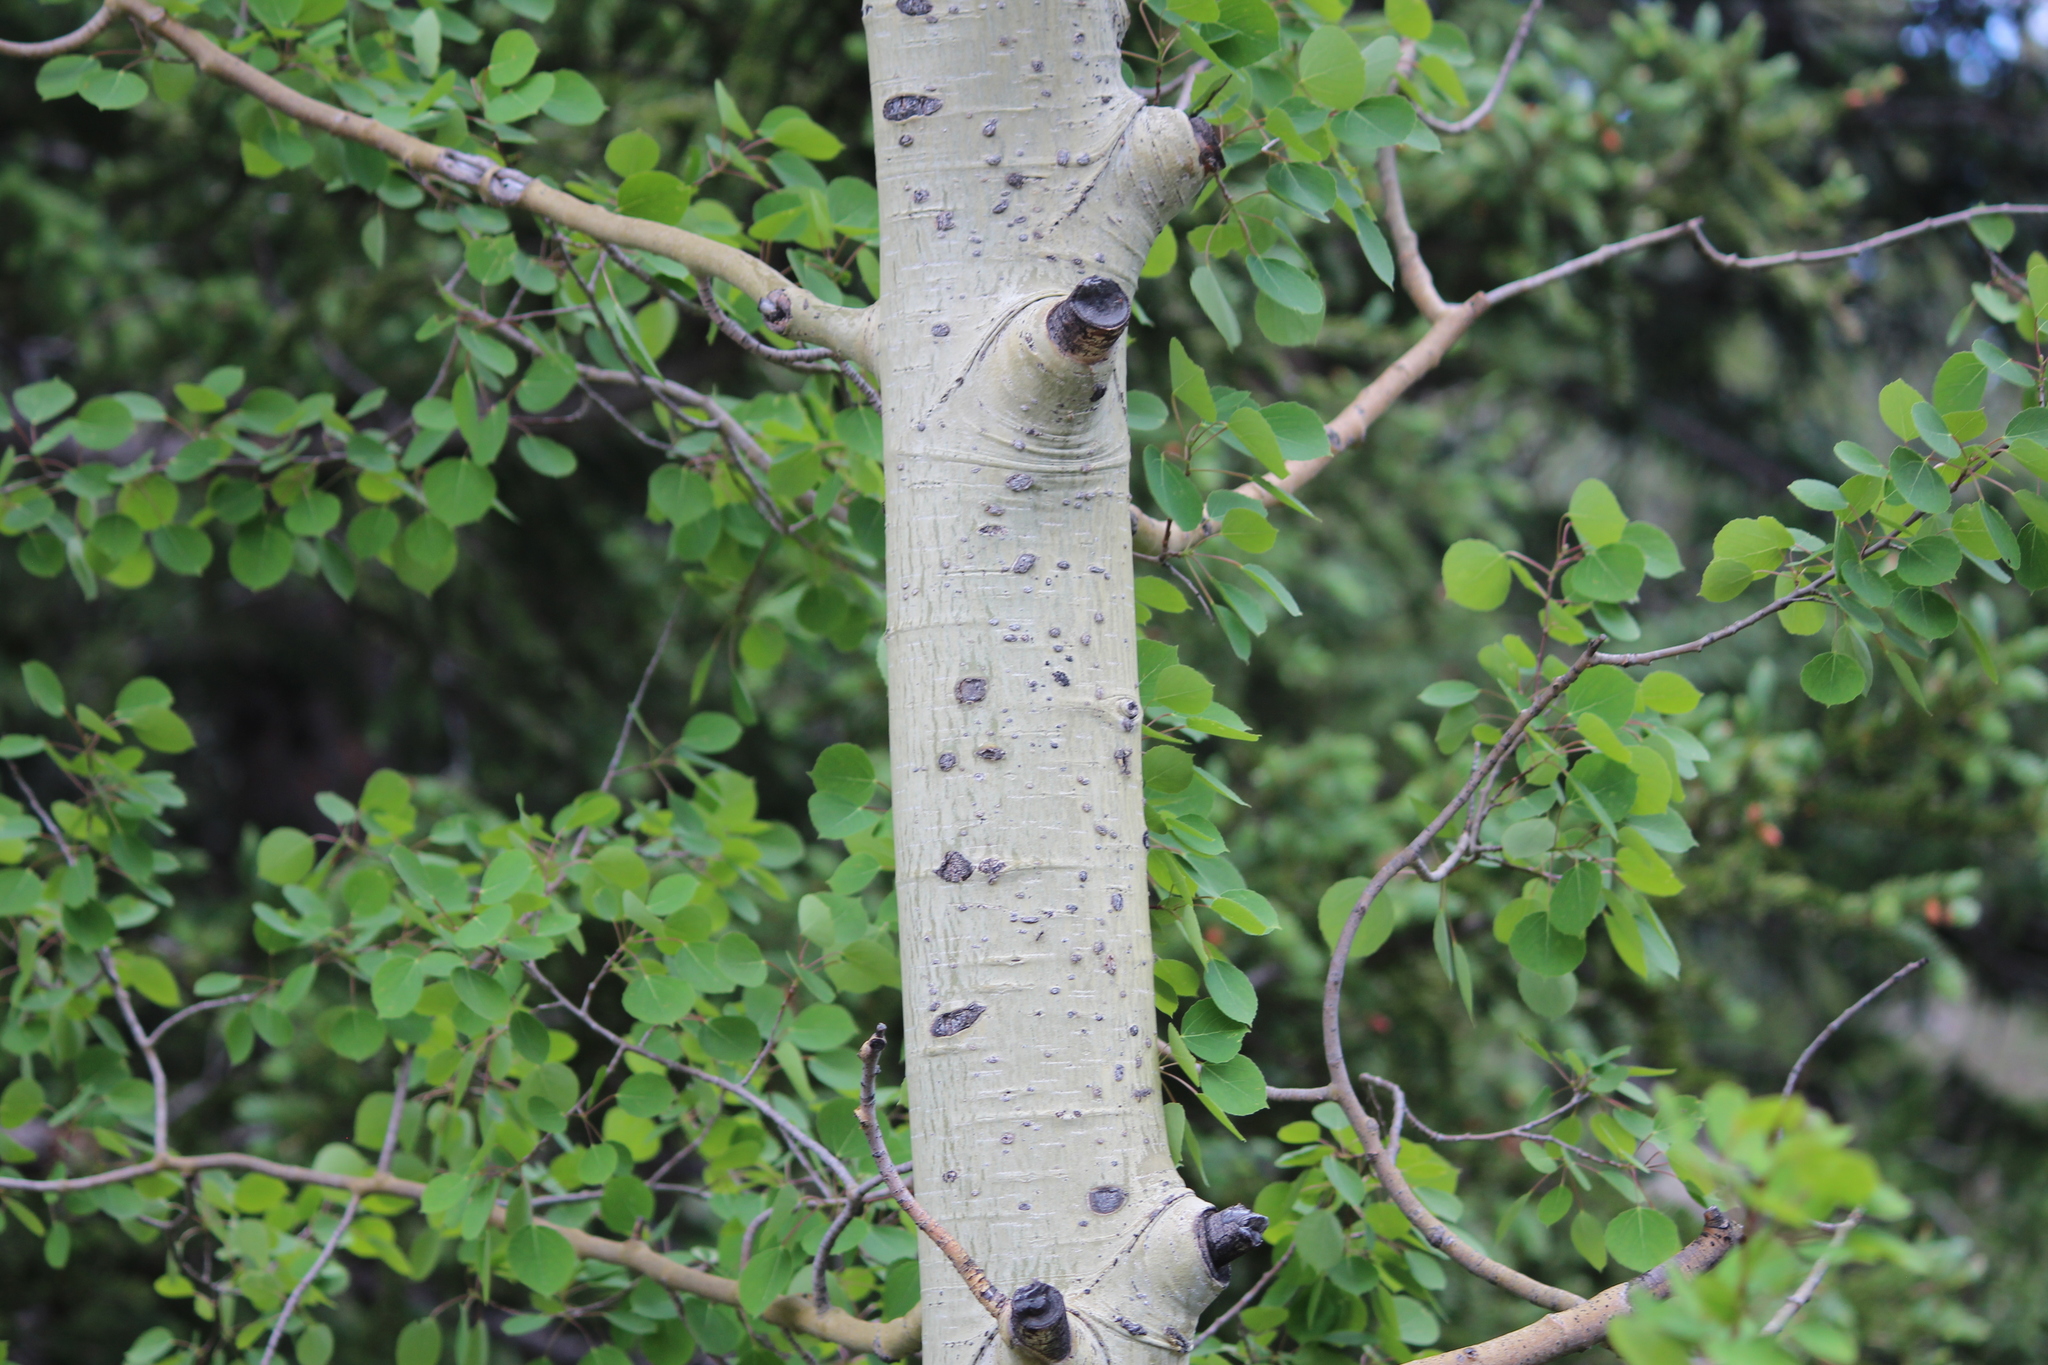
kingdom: Plantae
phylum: Tracheophyta
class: Magnoliopsida
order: Malpighiales
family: Salicaceae
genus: Populus
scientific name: Populus tremuloides
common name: Quaking aspen
